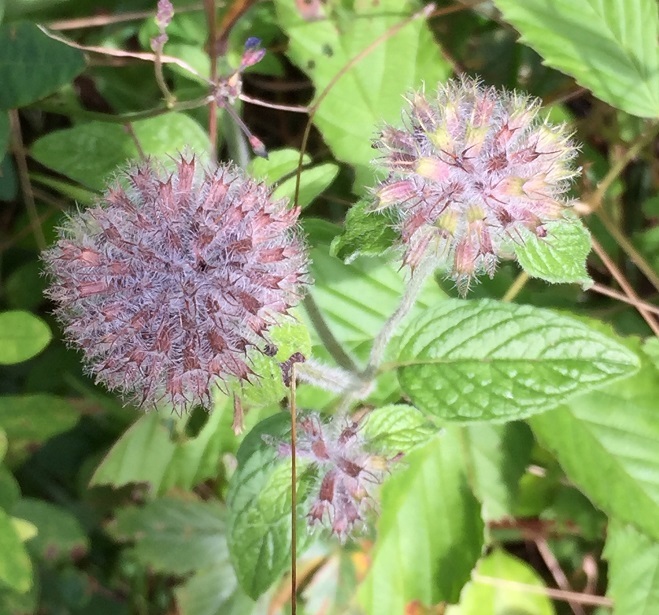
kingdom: Plantae
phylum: Tracheophyta
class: Magnoliopsida
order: Lamiales
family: Lamiaceae
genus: Clinopodium
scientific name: Clinopodium vulgare
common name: Wild basil
